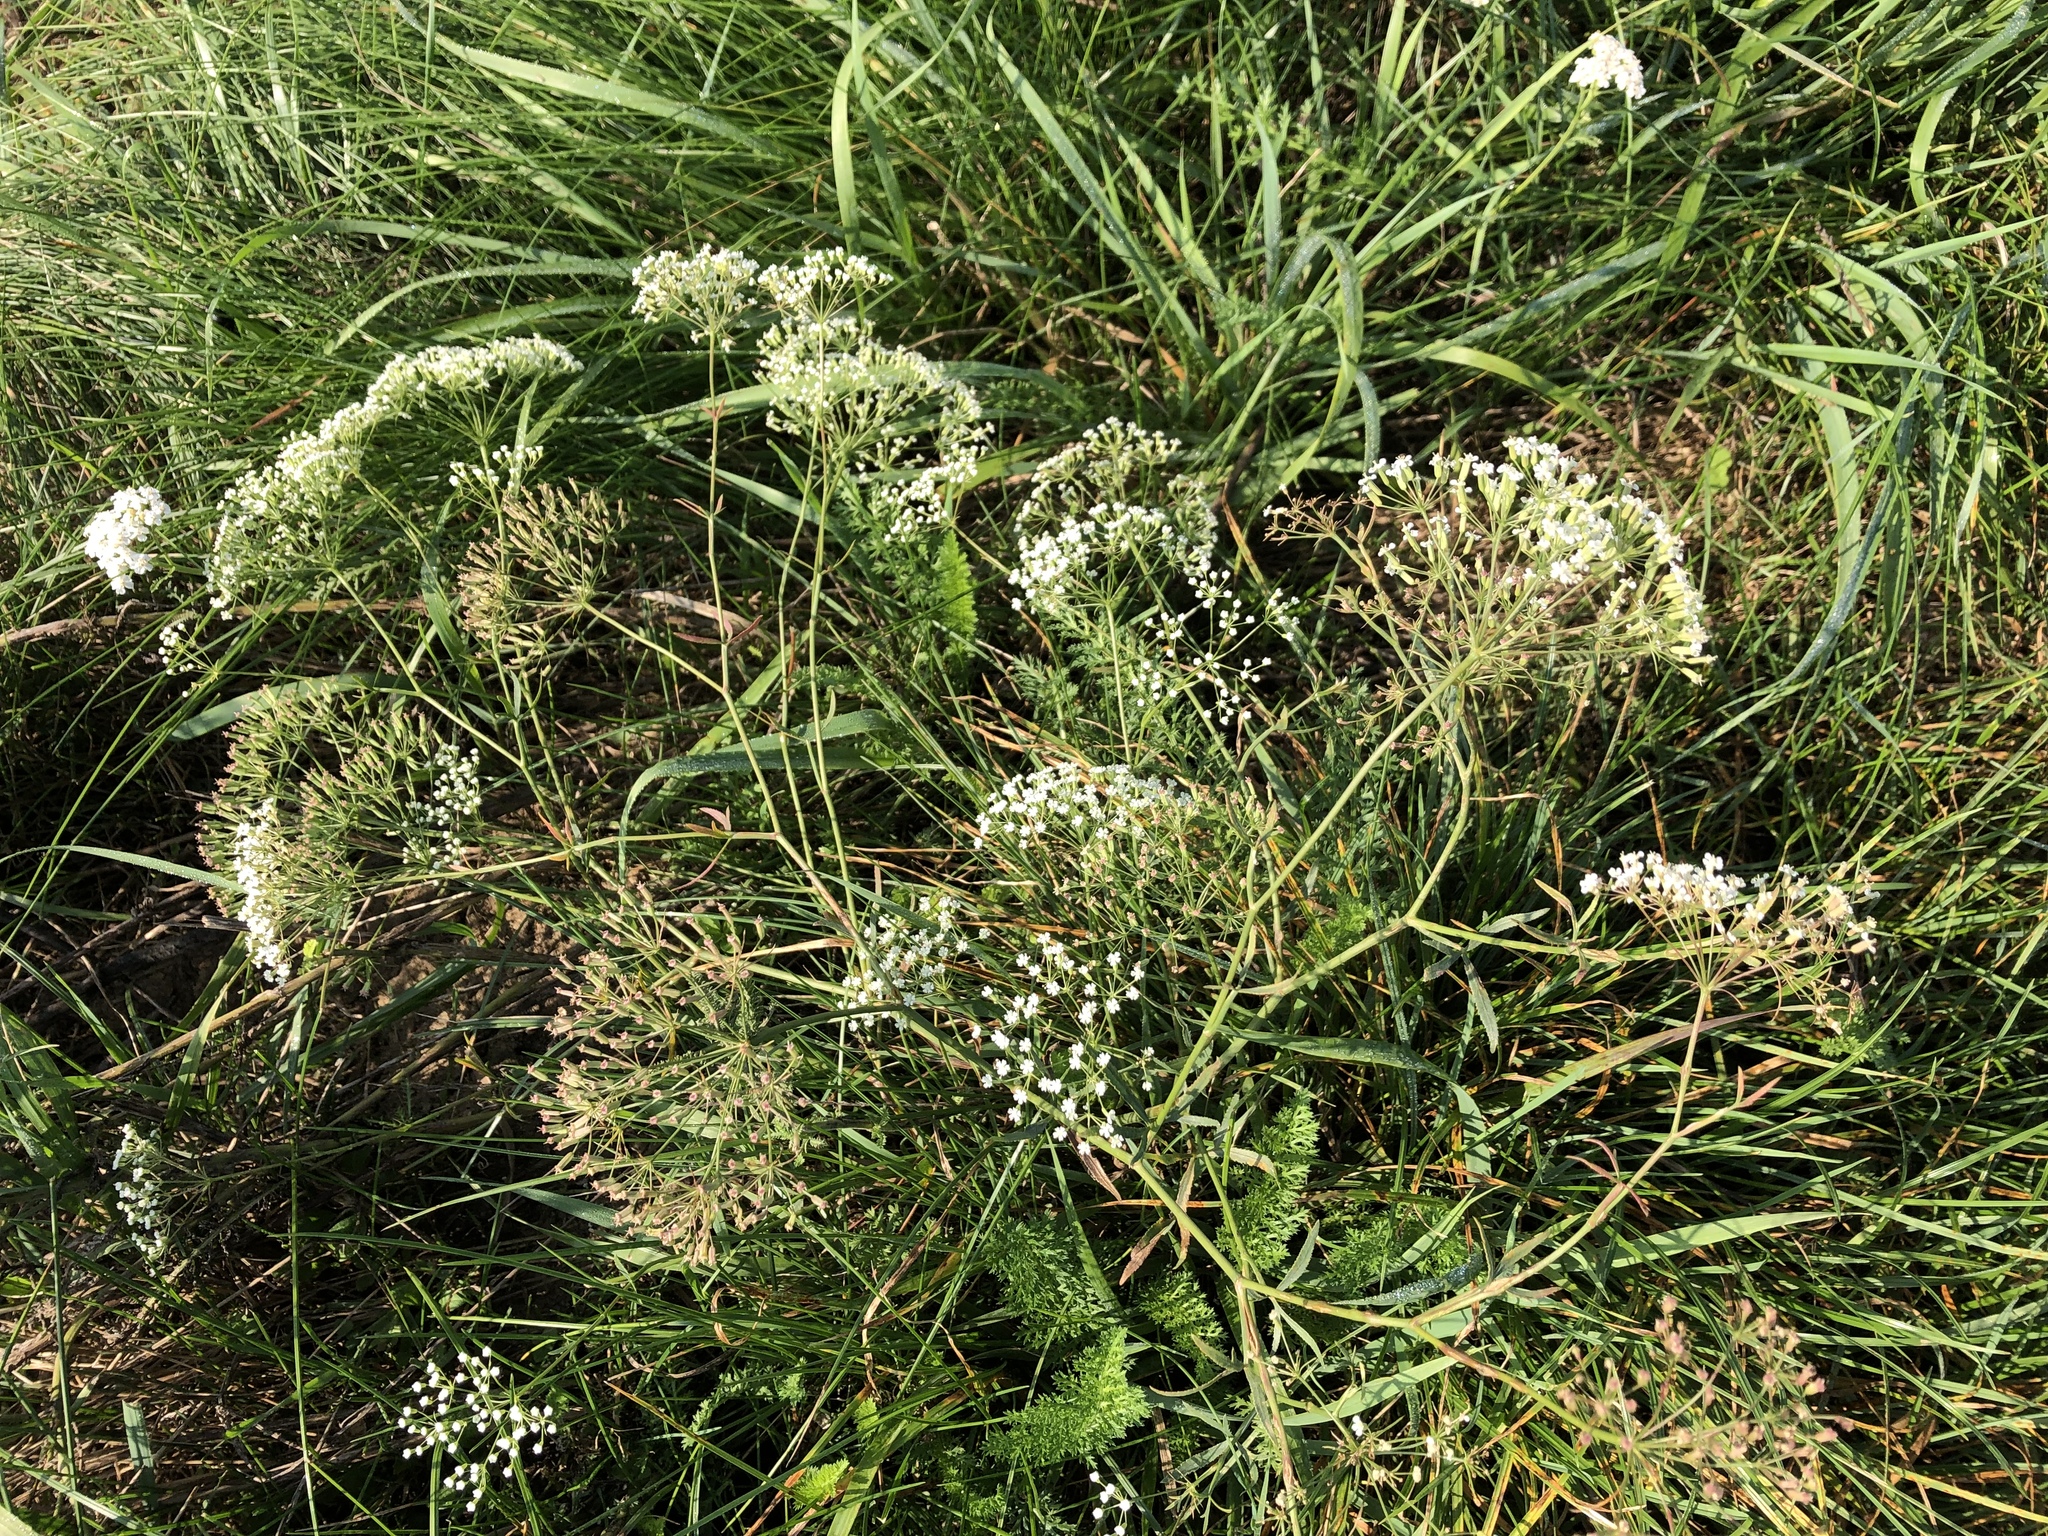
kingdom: Plantae
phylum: Tracheophyta
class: Magnoliopsida
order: Apiales
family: Apiaceae
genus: Falcaria
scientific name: Falcaria vulgaris
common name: Longleaf
